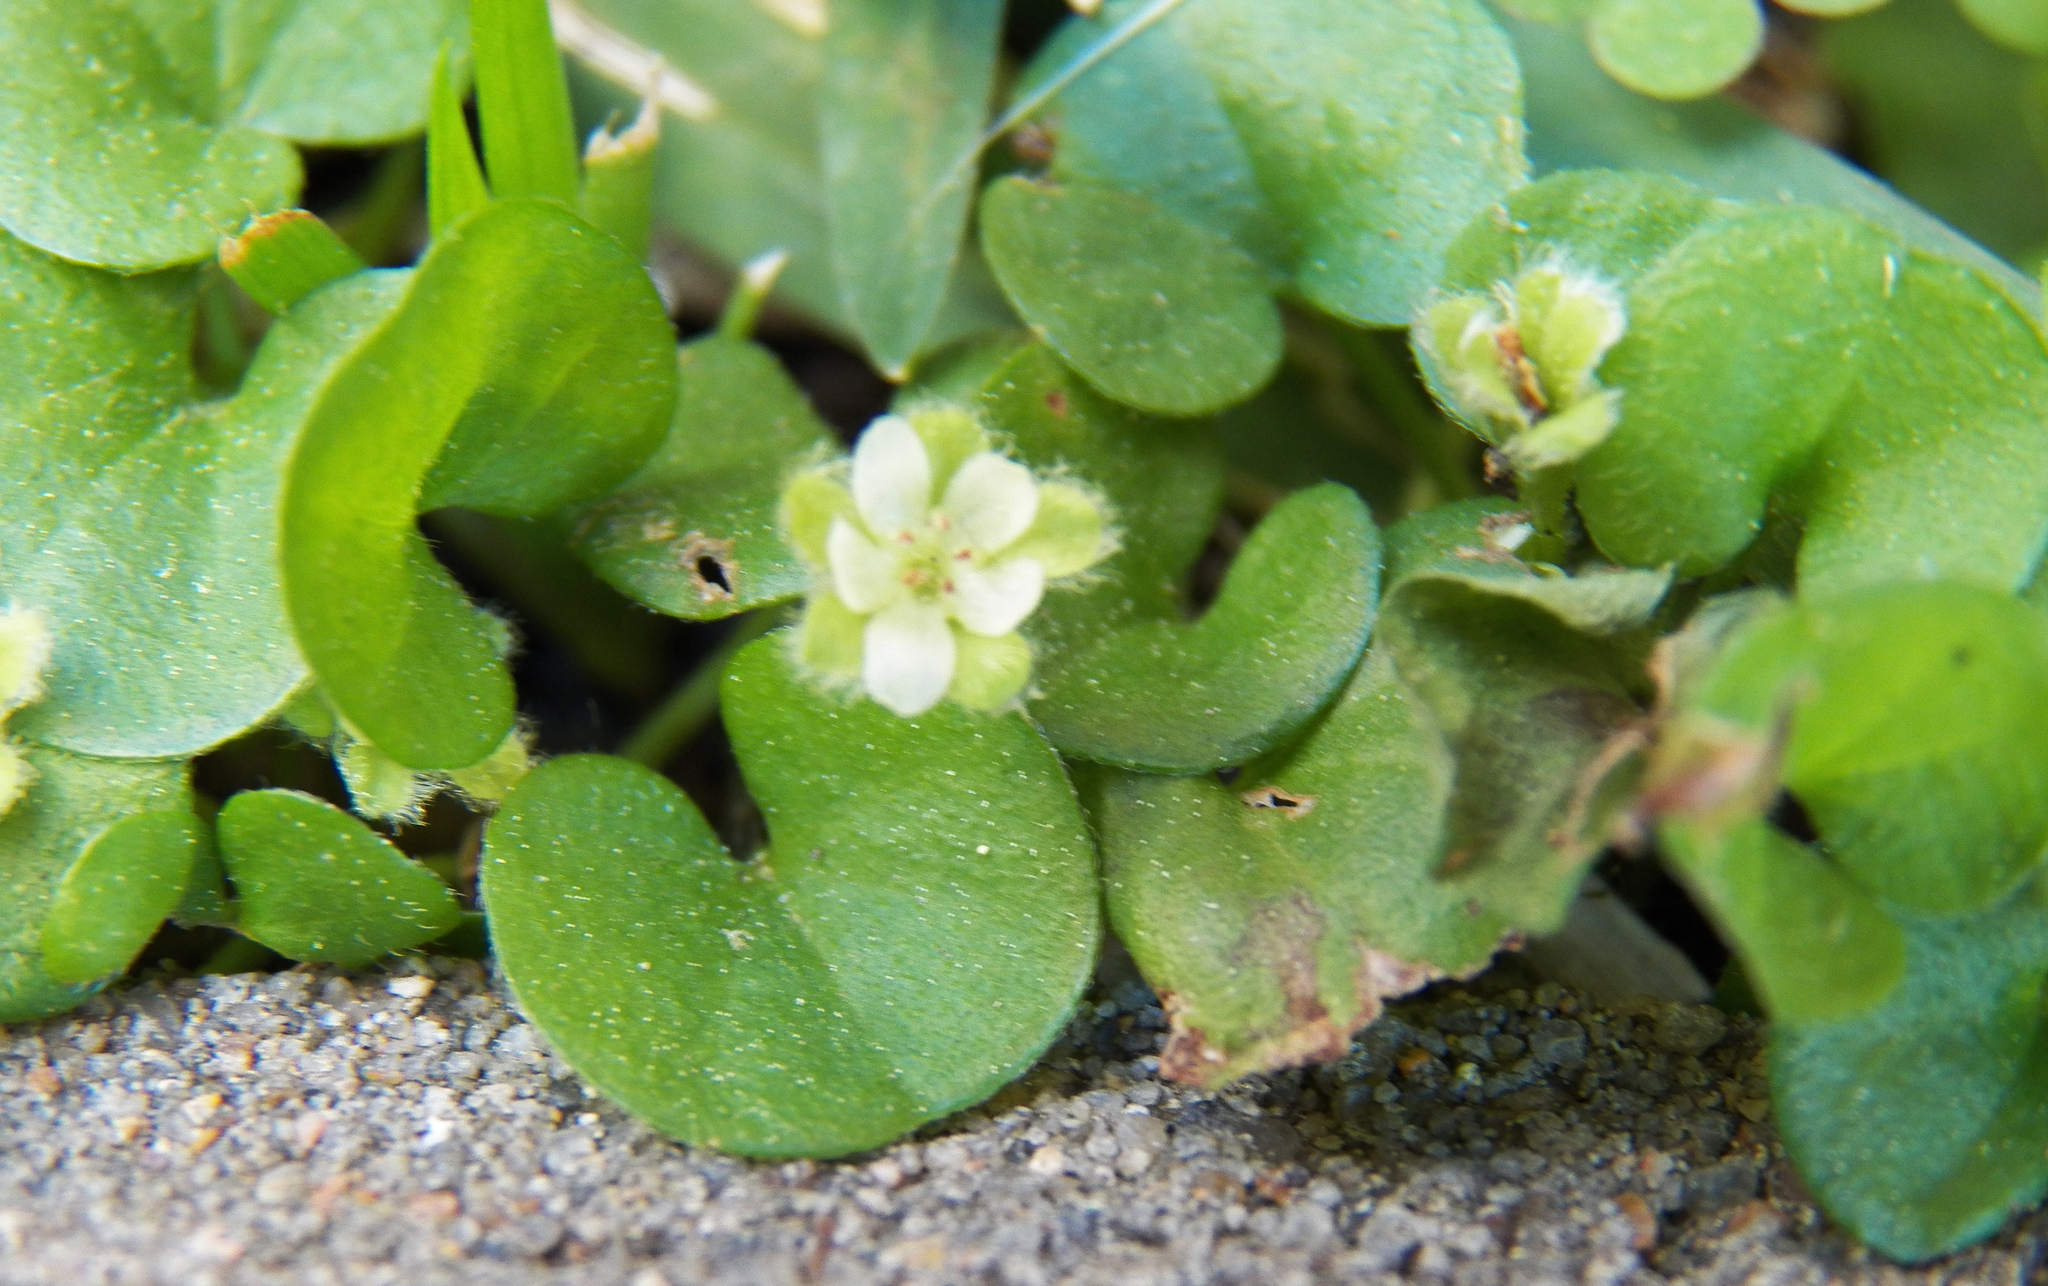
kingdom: Plantae
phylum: Tracheophyta
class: Magnoliopsida
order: Solanales
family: Convolvulaceae
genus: Dichondra
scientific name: Dichondra carolinensis
